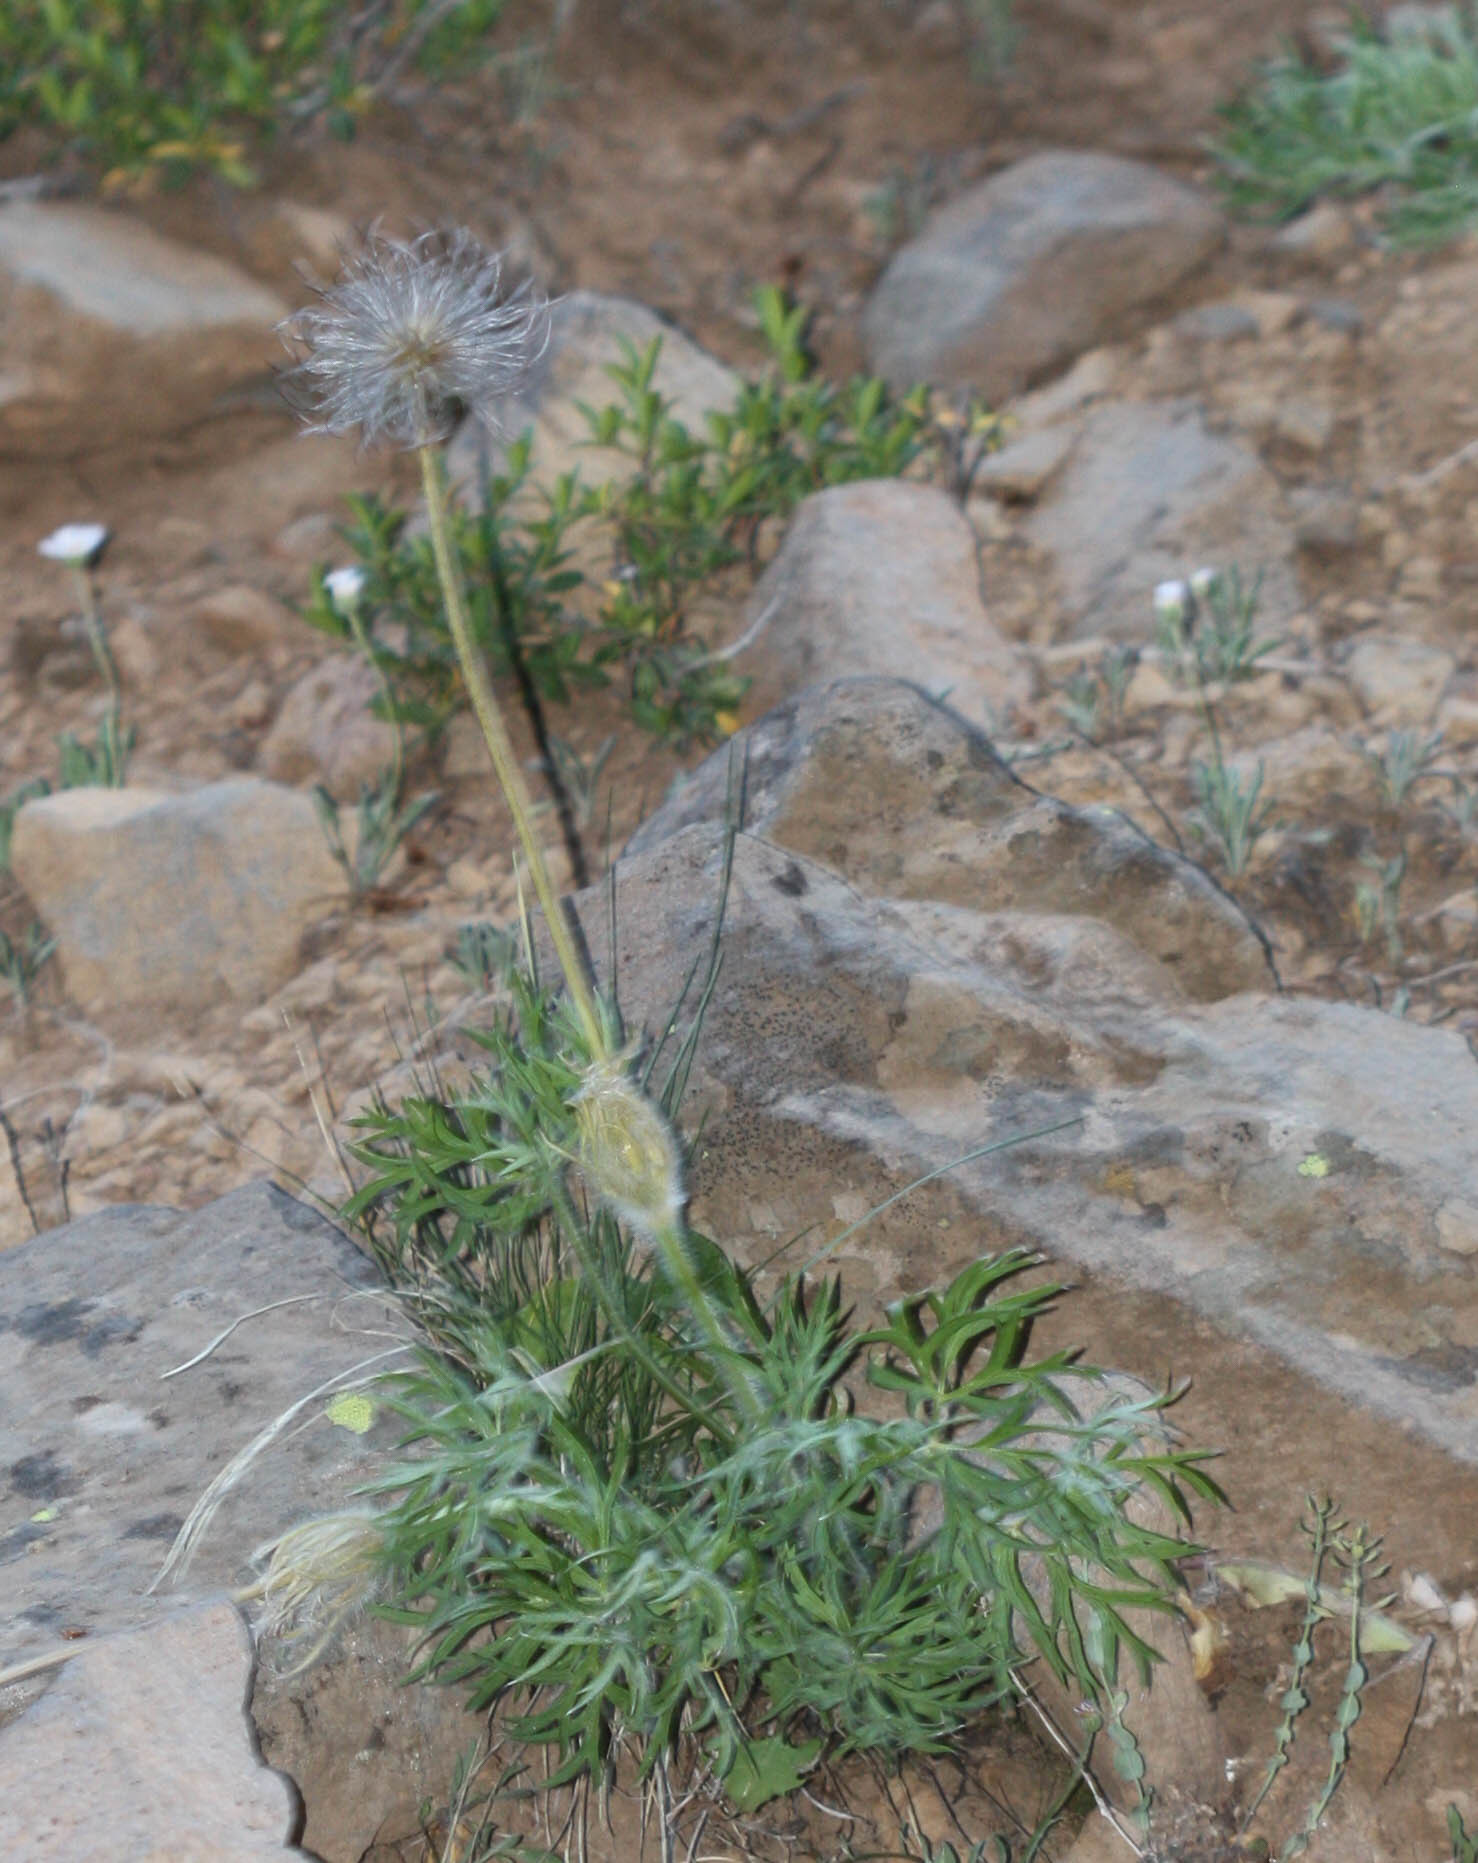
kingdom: Plantae
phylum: Tracheophyta
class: Magnoliopsida
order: Ranunculales
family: Ranunculaceae
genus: Pulsatilla
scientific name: Pulsatilla nuttalliana
